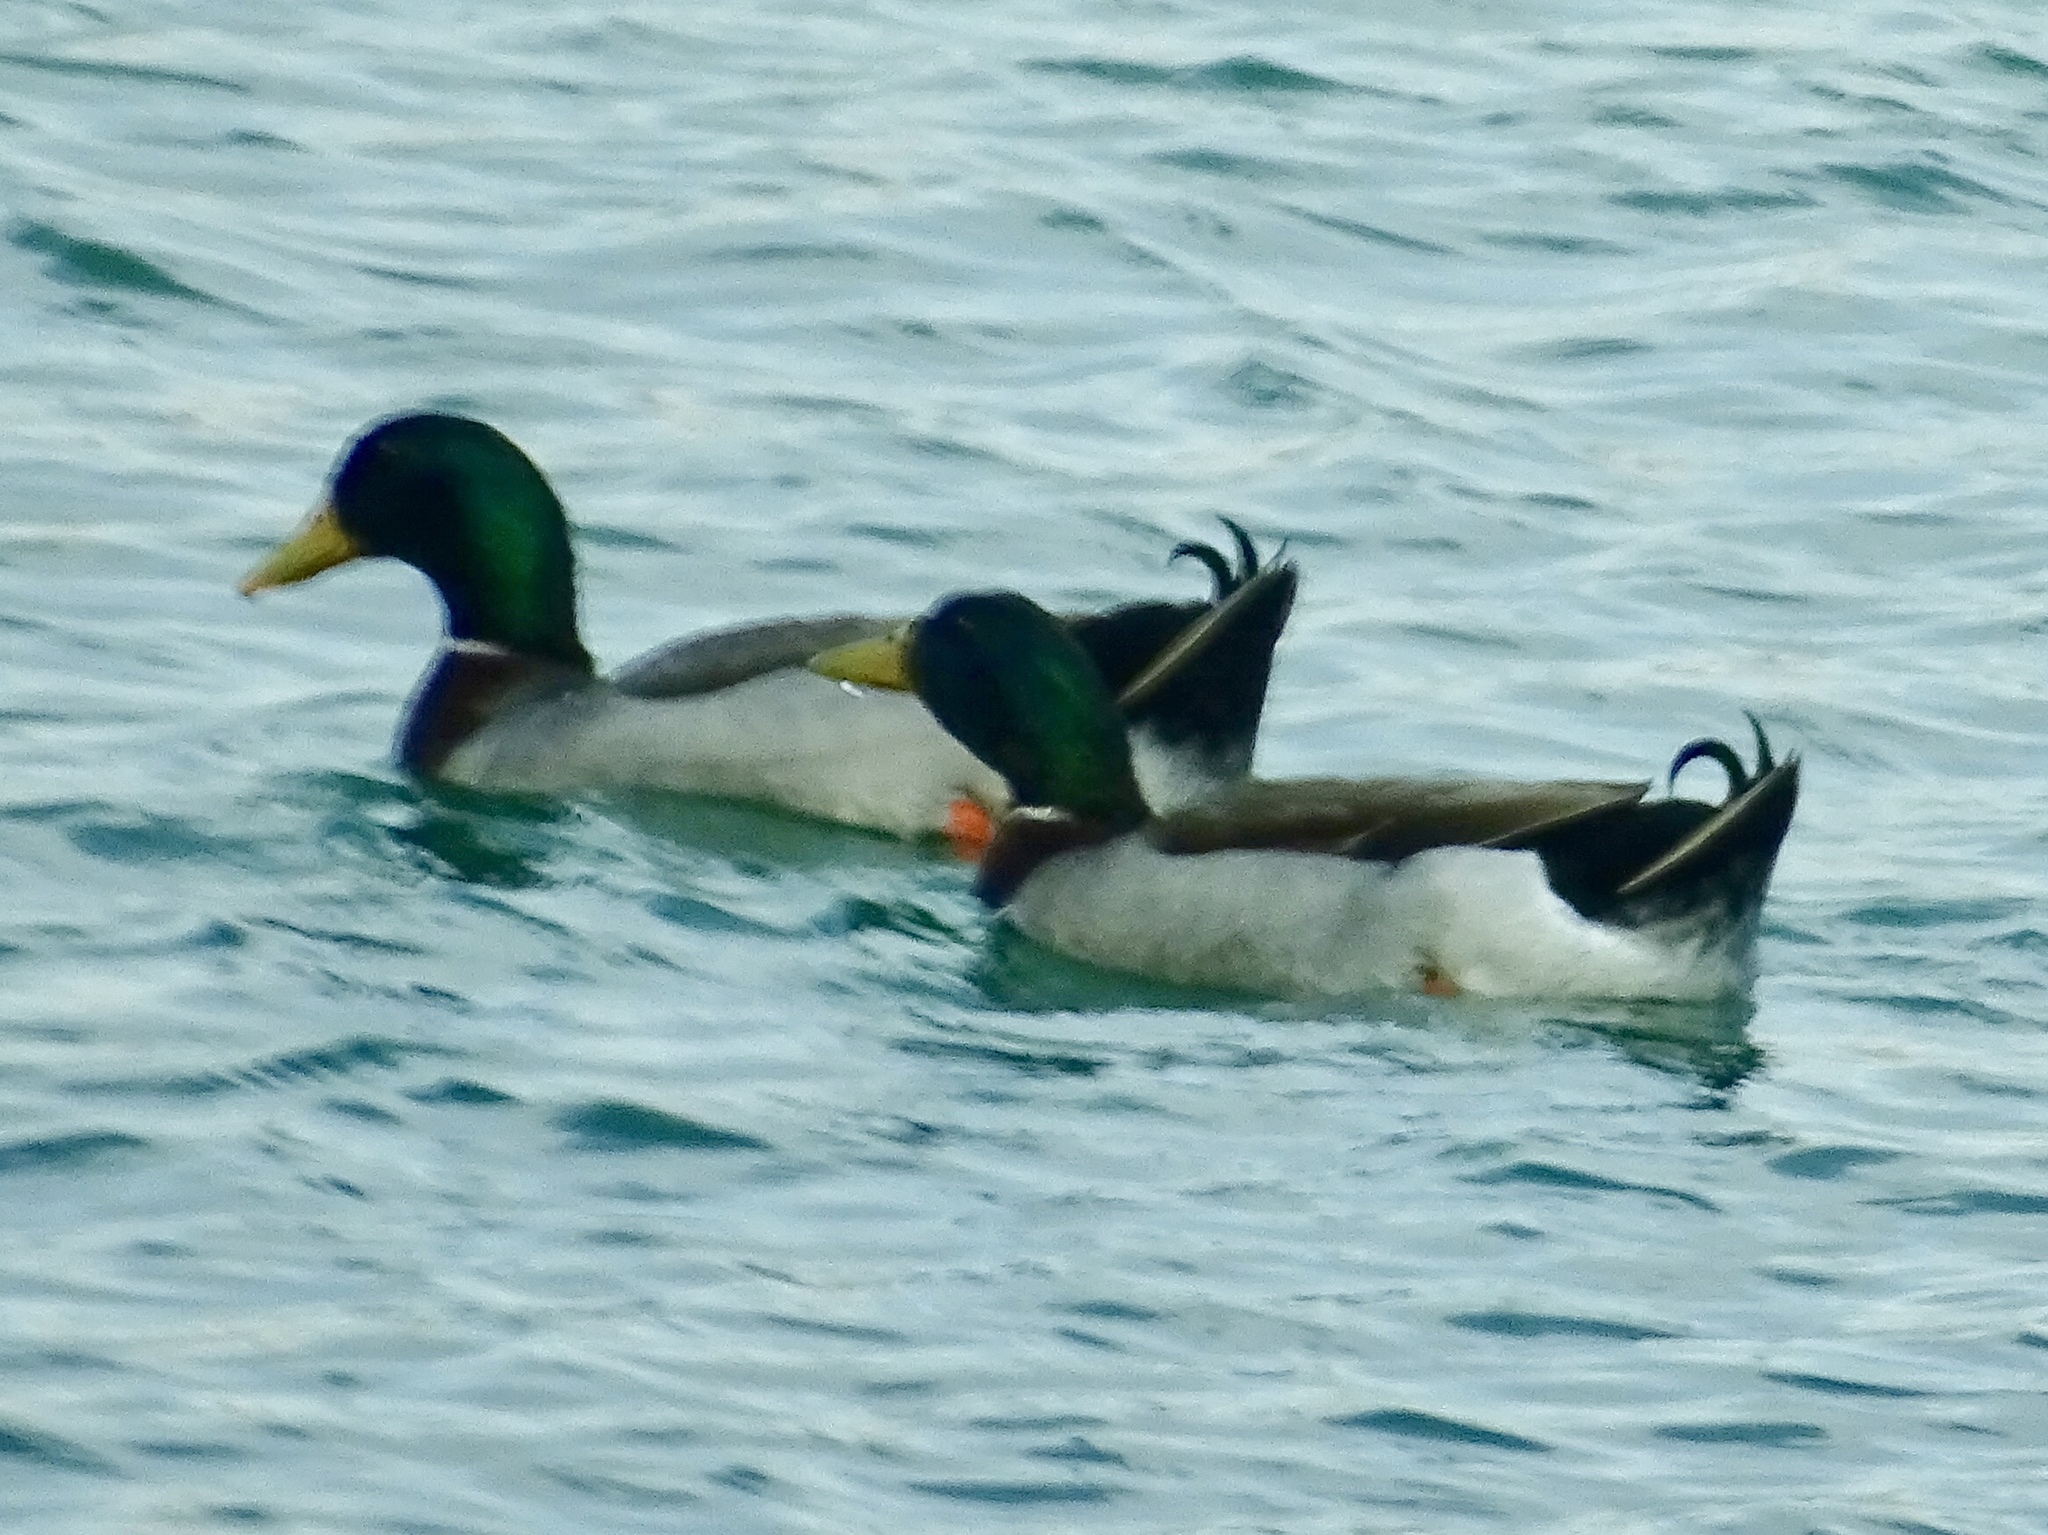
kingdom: Animalia
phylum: Chordata
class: Aves
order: Anseriformes
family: Anatidae
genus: Anas
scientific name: Anas platyrhynchos
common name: Mallard
